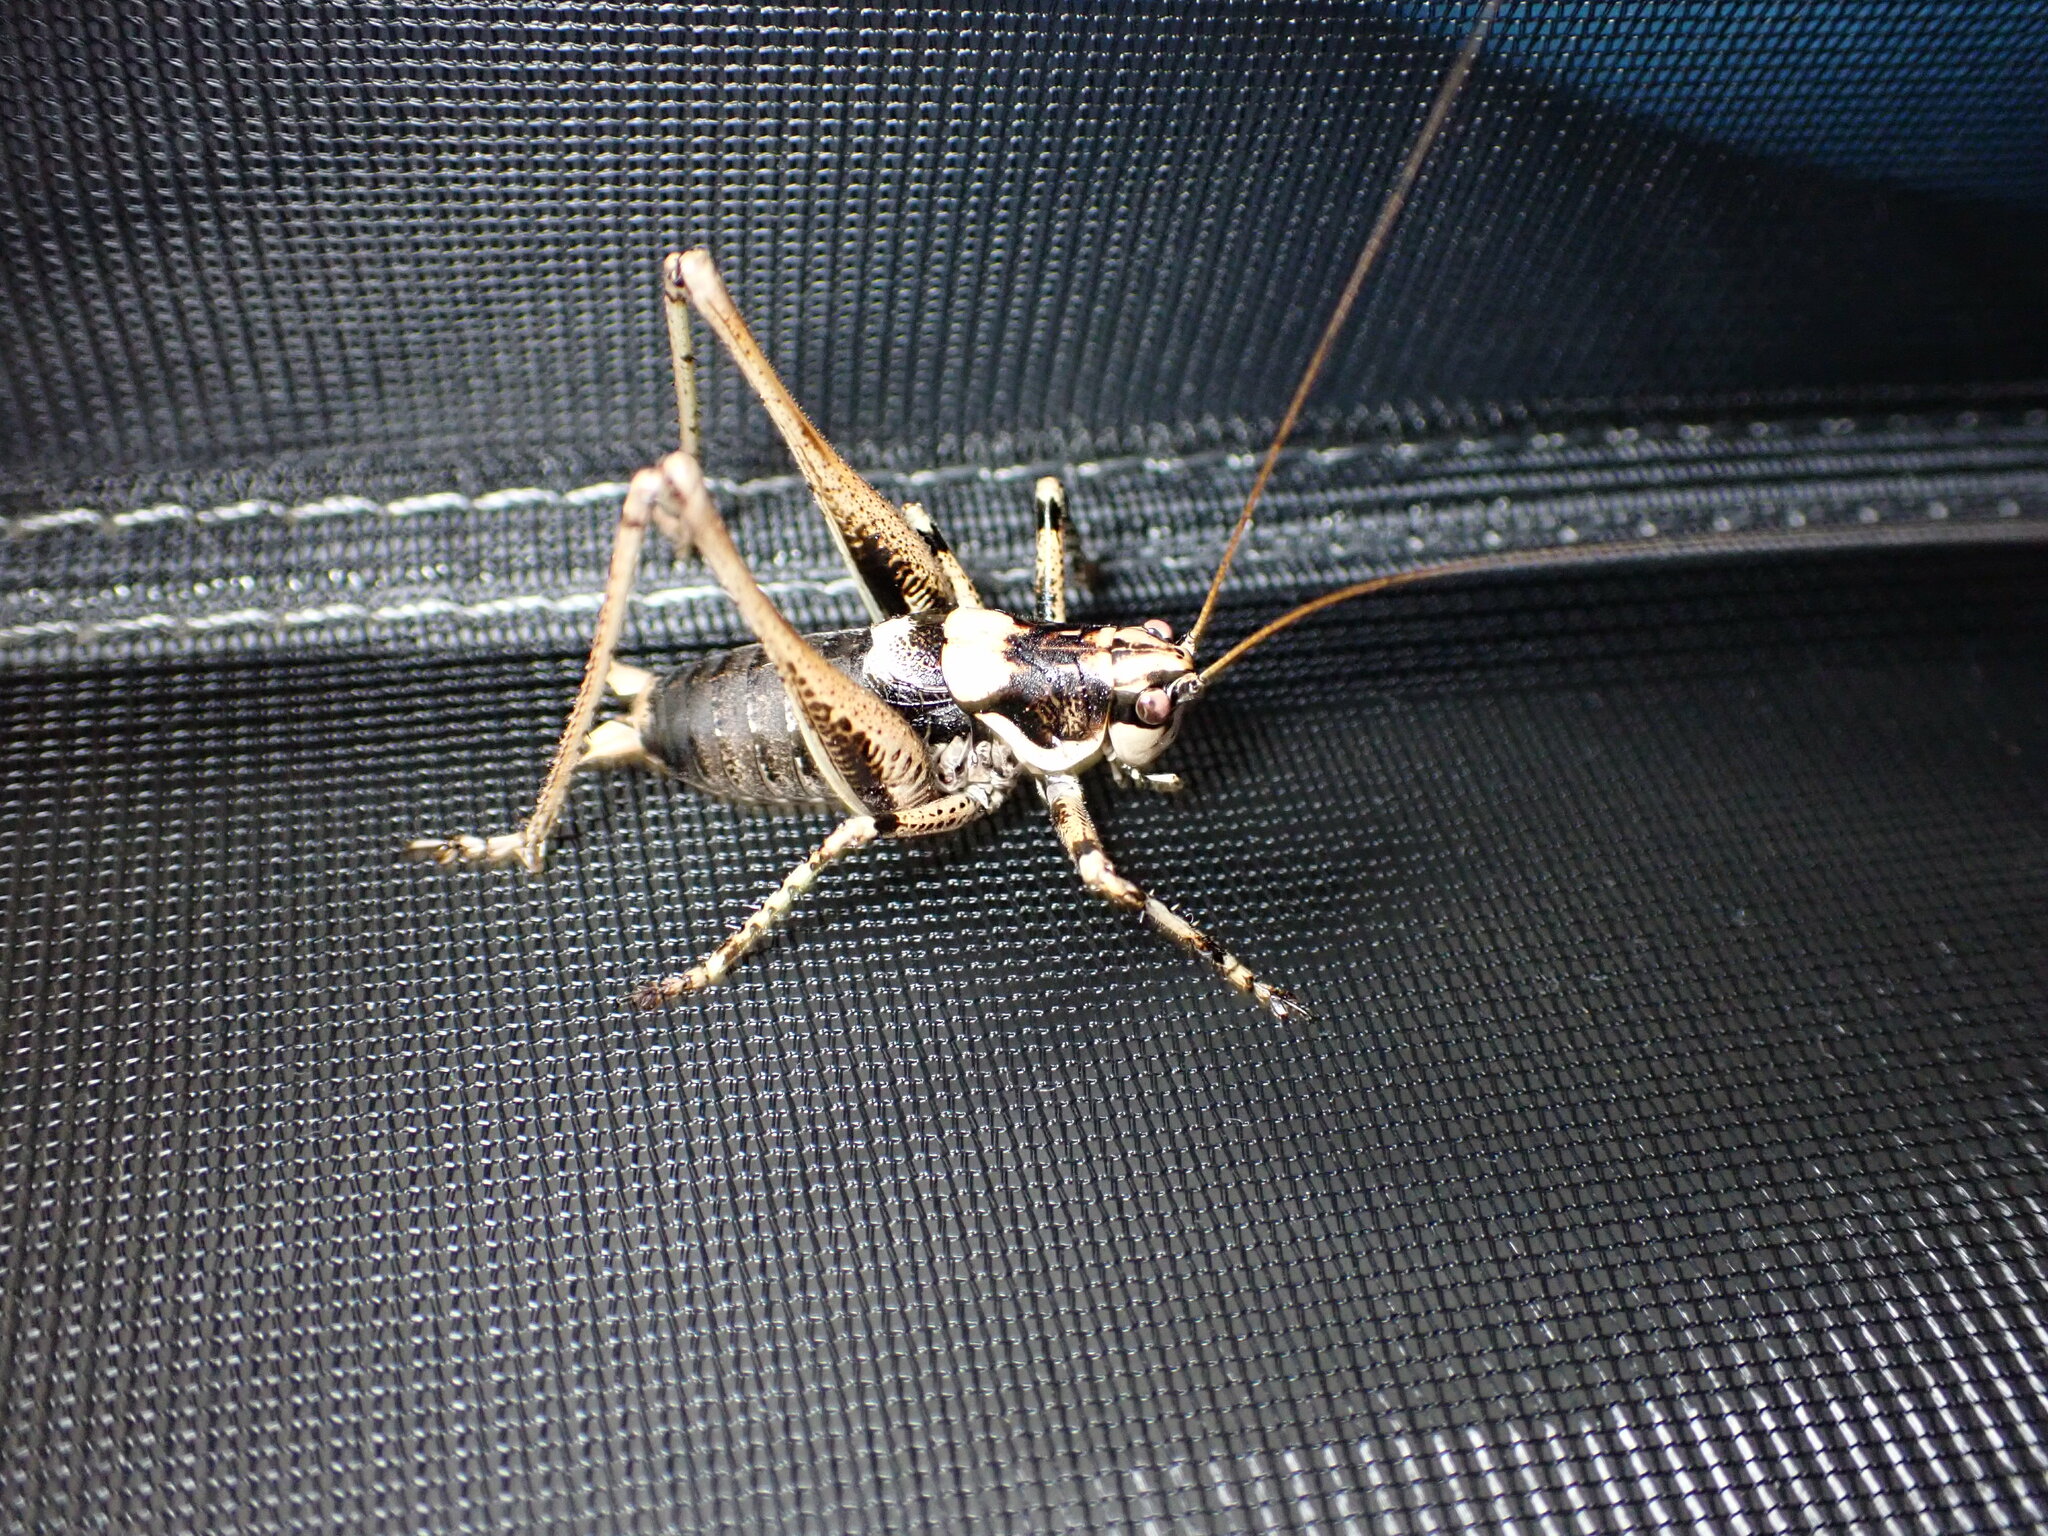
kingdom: Animalia
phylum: Arthropoda
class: Insecta
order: Orthoptera
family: Tettigoniidae
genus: Antaxius
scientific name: Antaxius pedestris
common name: Common mountain bush-cricket
